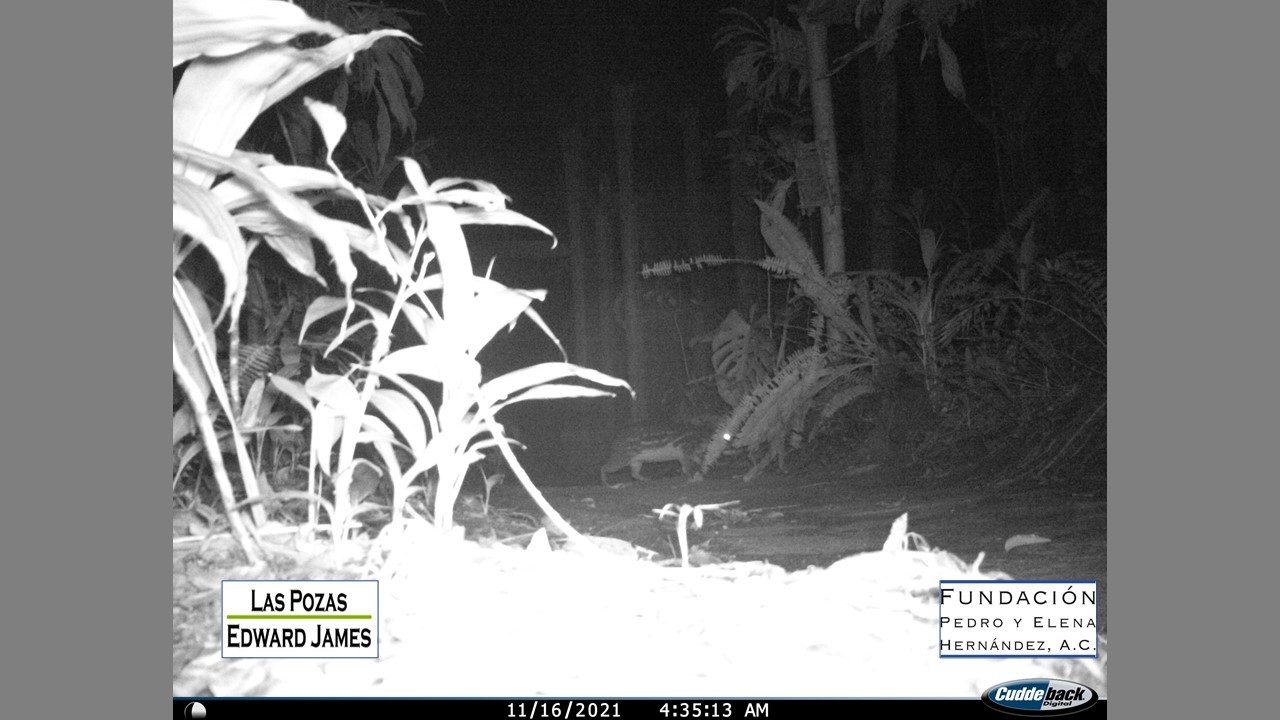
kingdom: Animalia
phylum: Chordata
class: Mammalia
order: Rodentia
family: Cuniculidae
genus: Cuniculus
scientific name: Cuniculus paca
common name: Lowland paca
